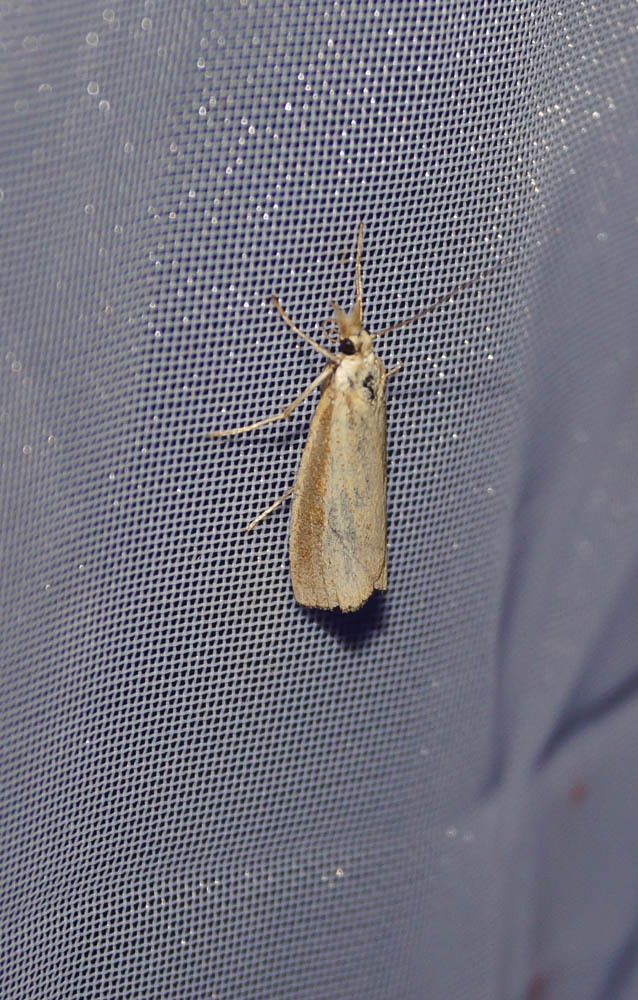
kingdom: Animalia
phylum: Arthropoda
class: Insecta
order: Lepidoptera
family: Crambidae
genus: Agriphila
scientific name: Agriphila straminella
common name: Straw grass-veneer
